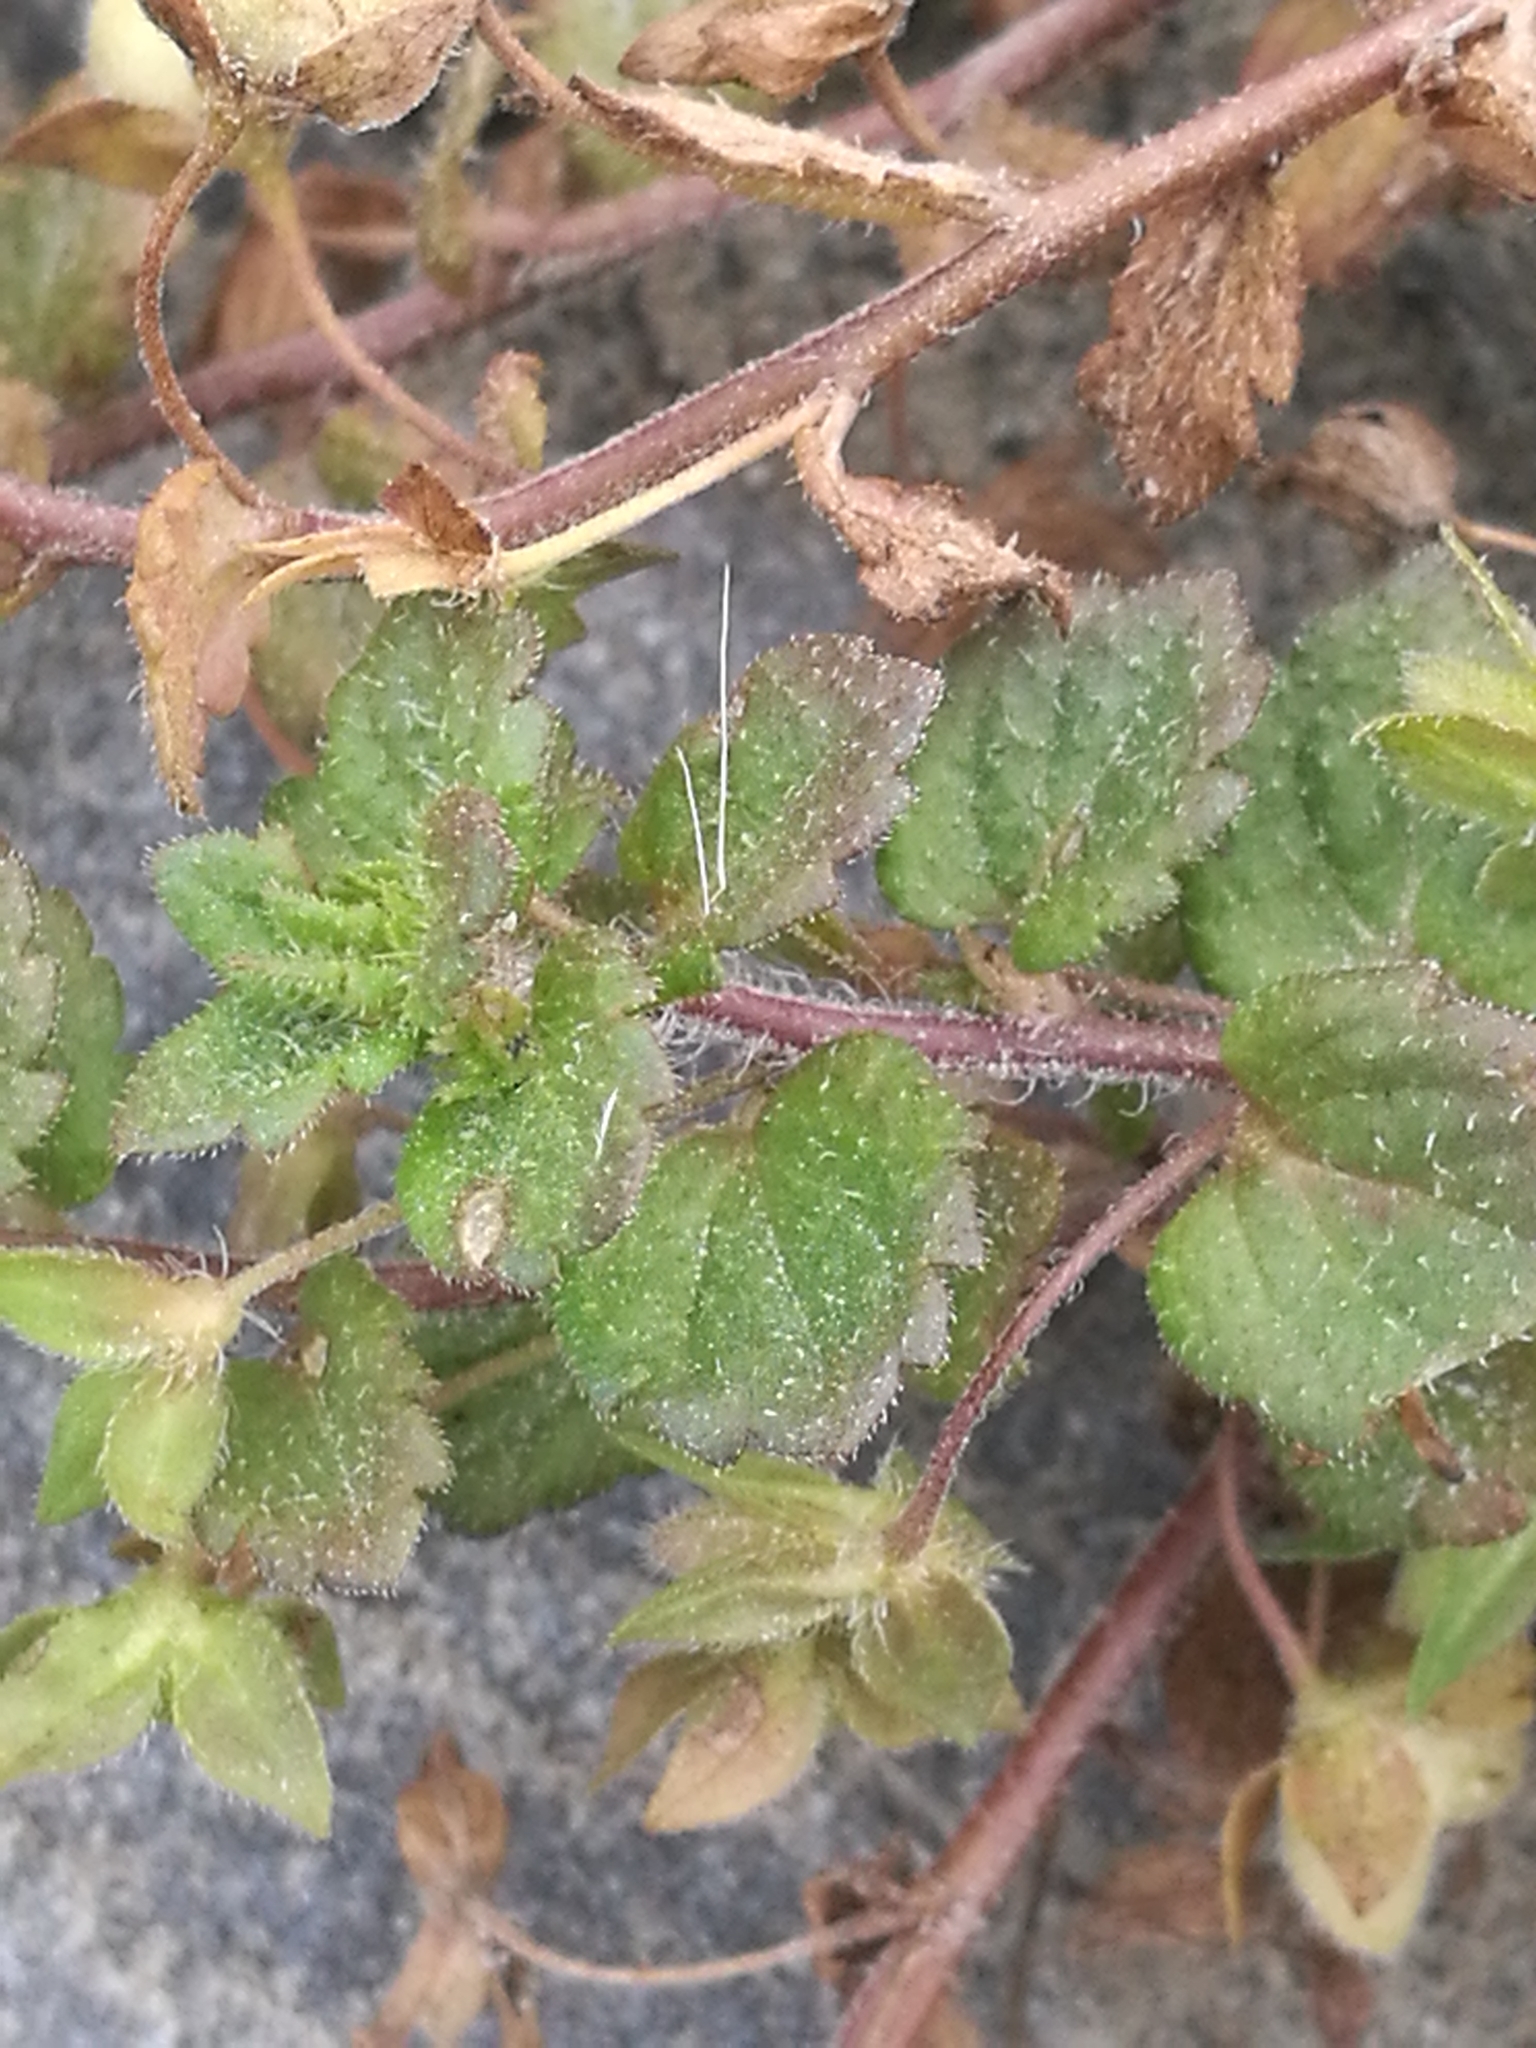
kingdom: Plantae
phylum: Tracheophyta
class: Magnoliopsida
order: Lamiales
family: Plantaginaceae
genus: Veronica
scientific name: Veronica persica
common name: Common field-speedwell
